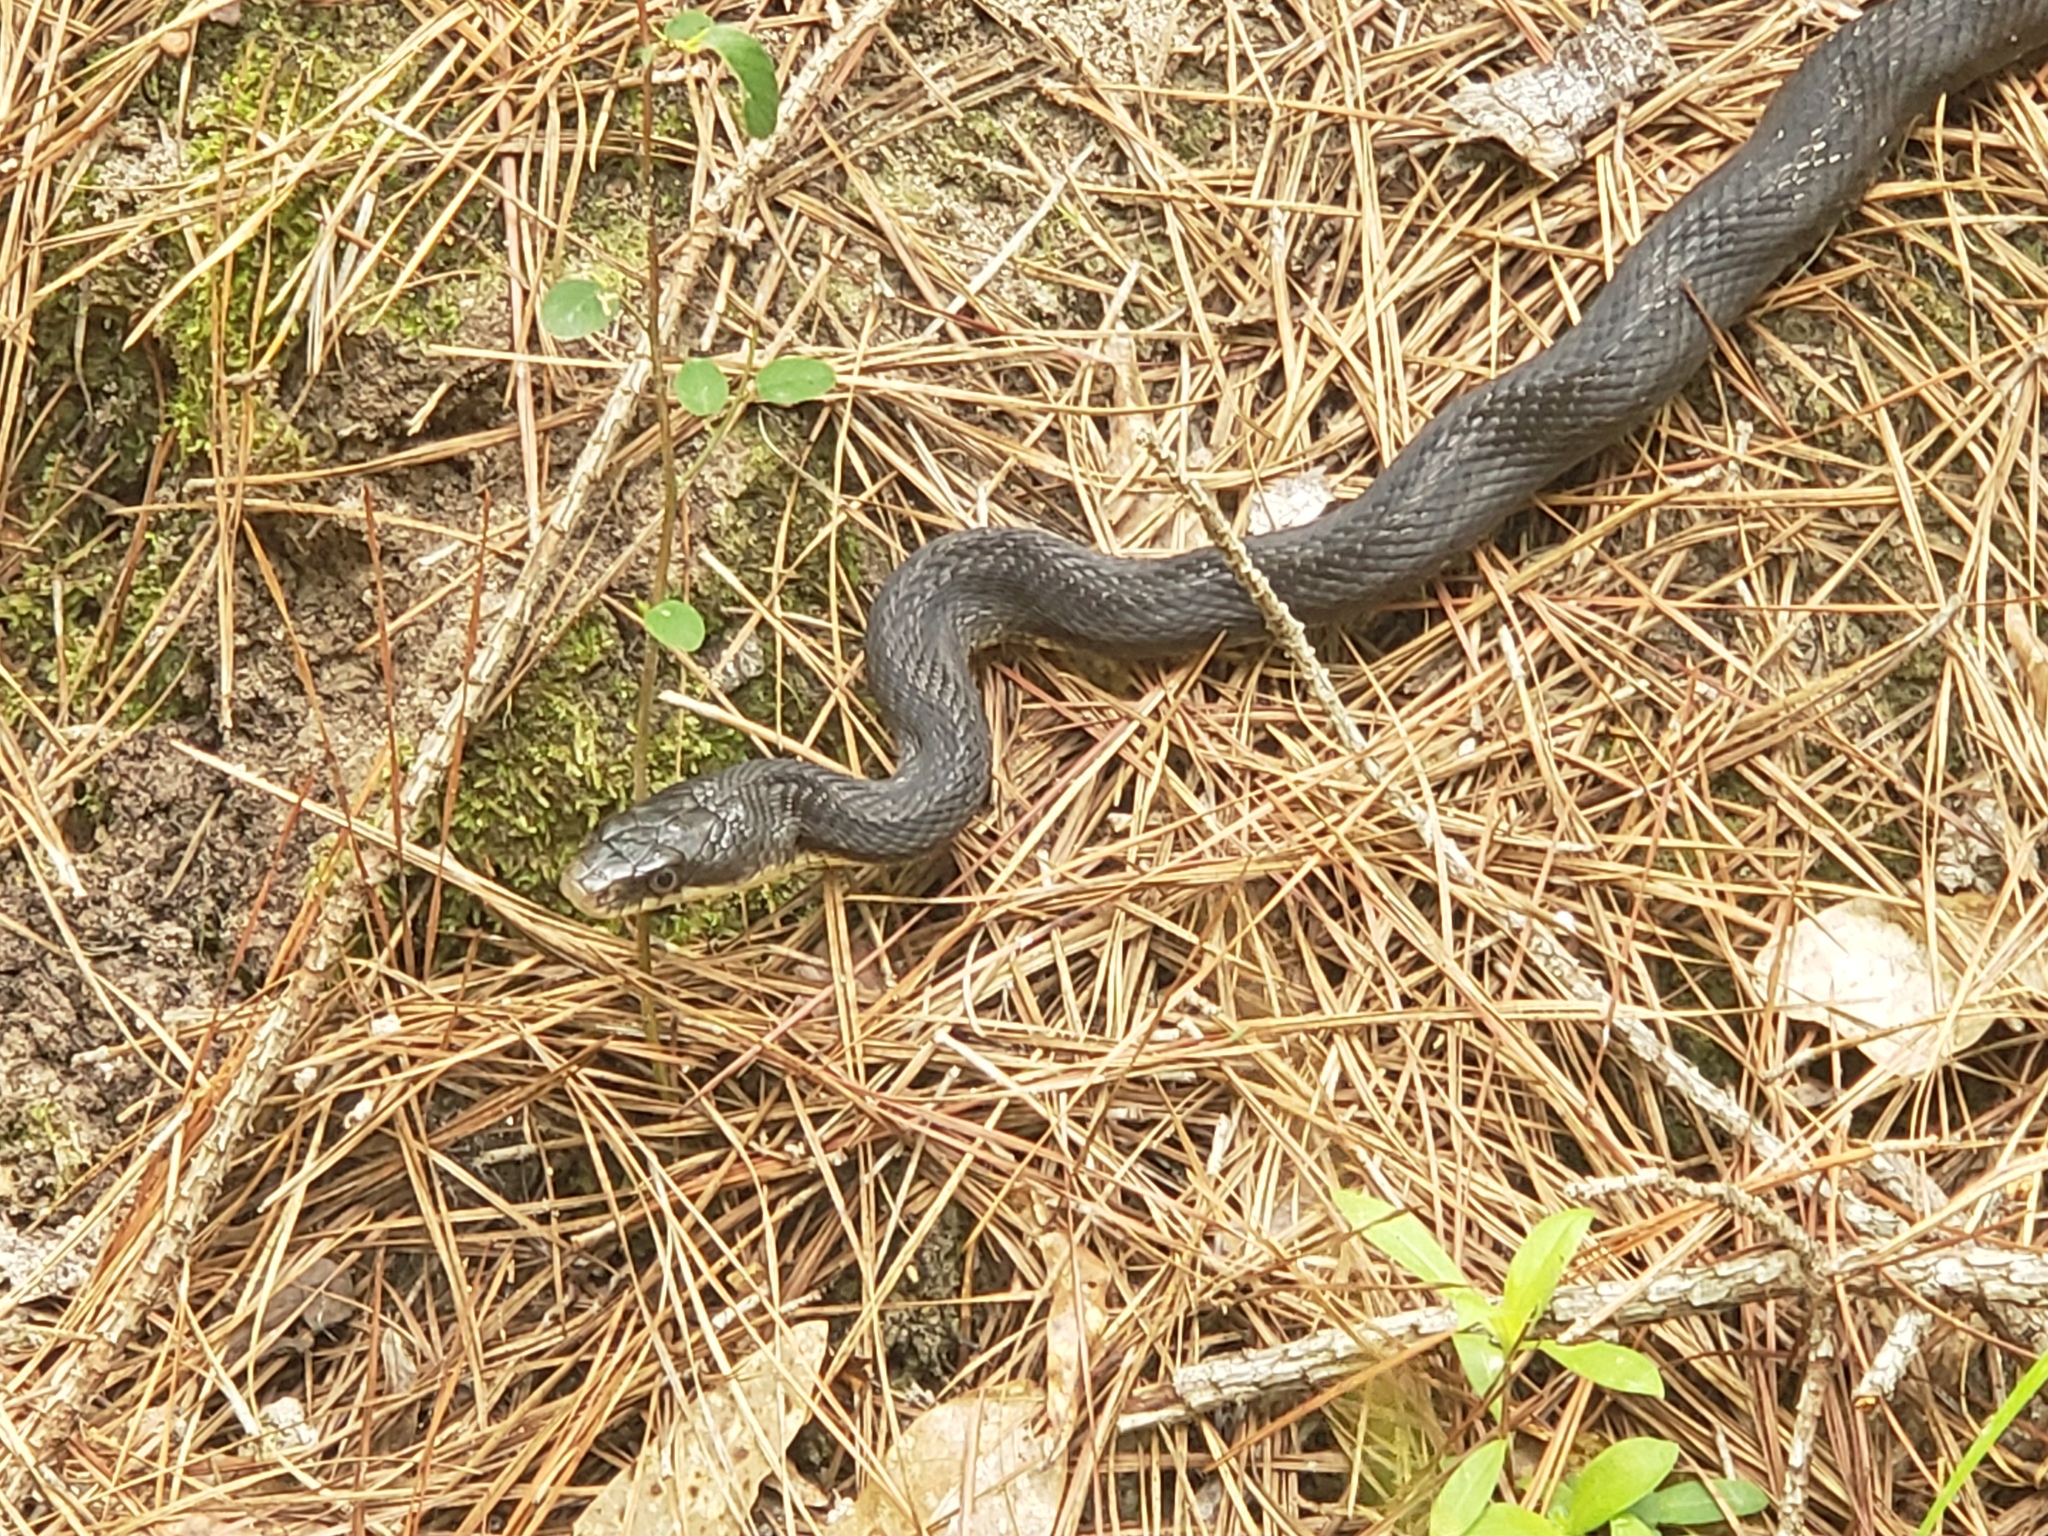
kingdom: Animalia
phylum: Chordata
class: Squamata
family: Colubridae
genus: Pantherophis
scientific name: Pantherophis obsoletus
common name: Black rat snake
